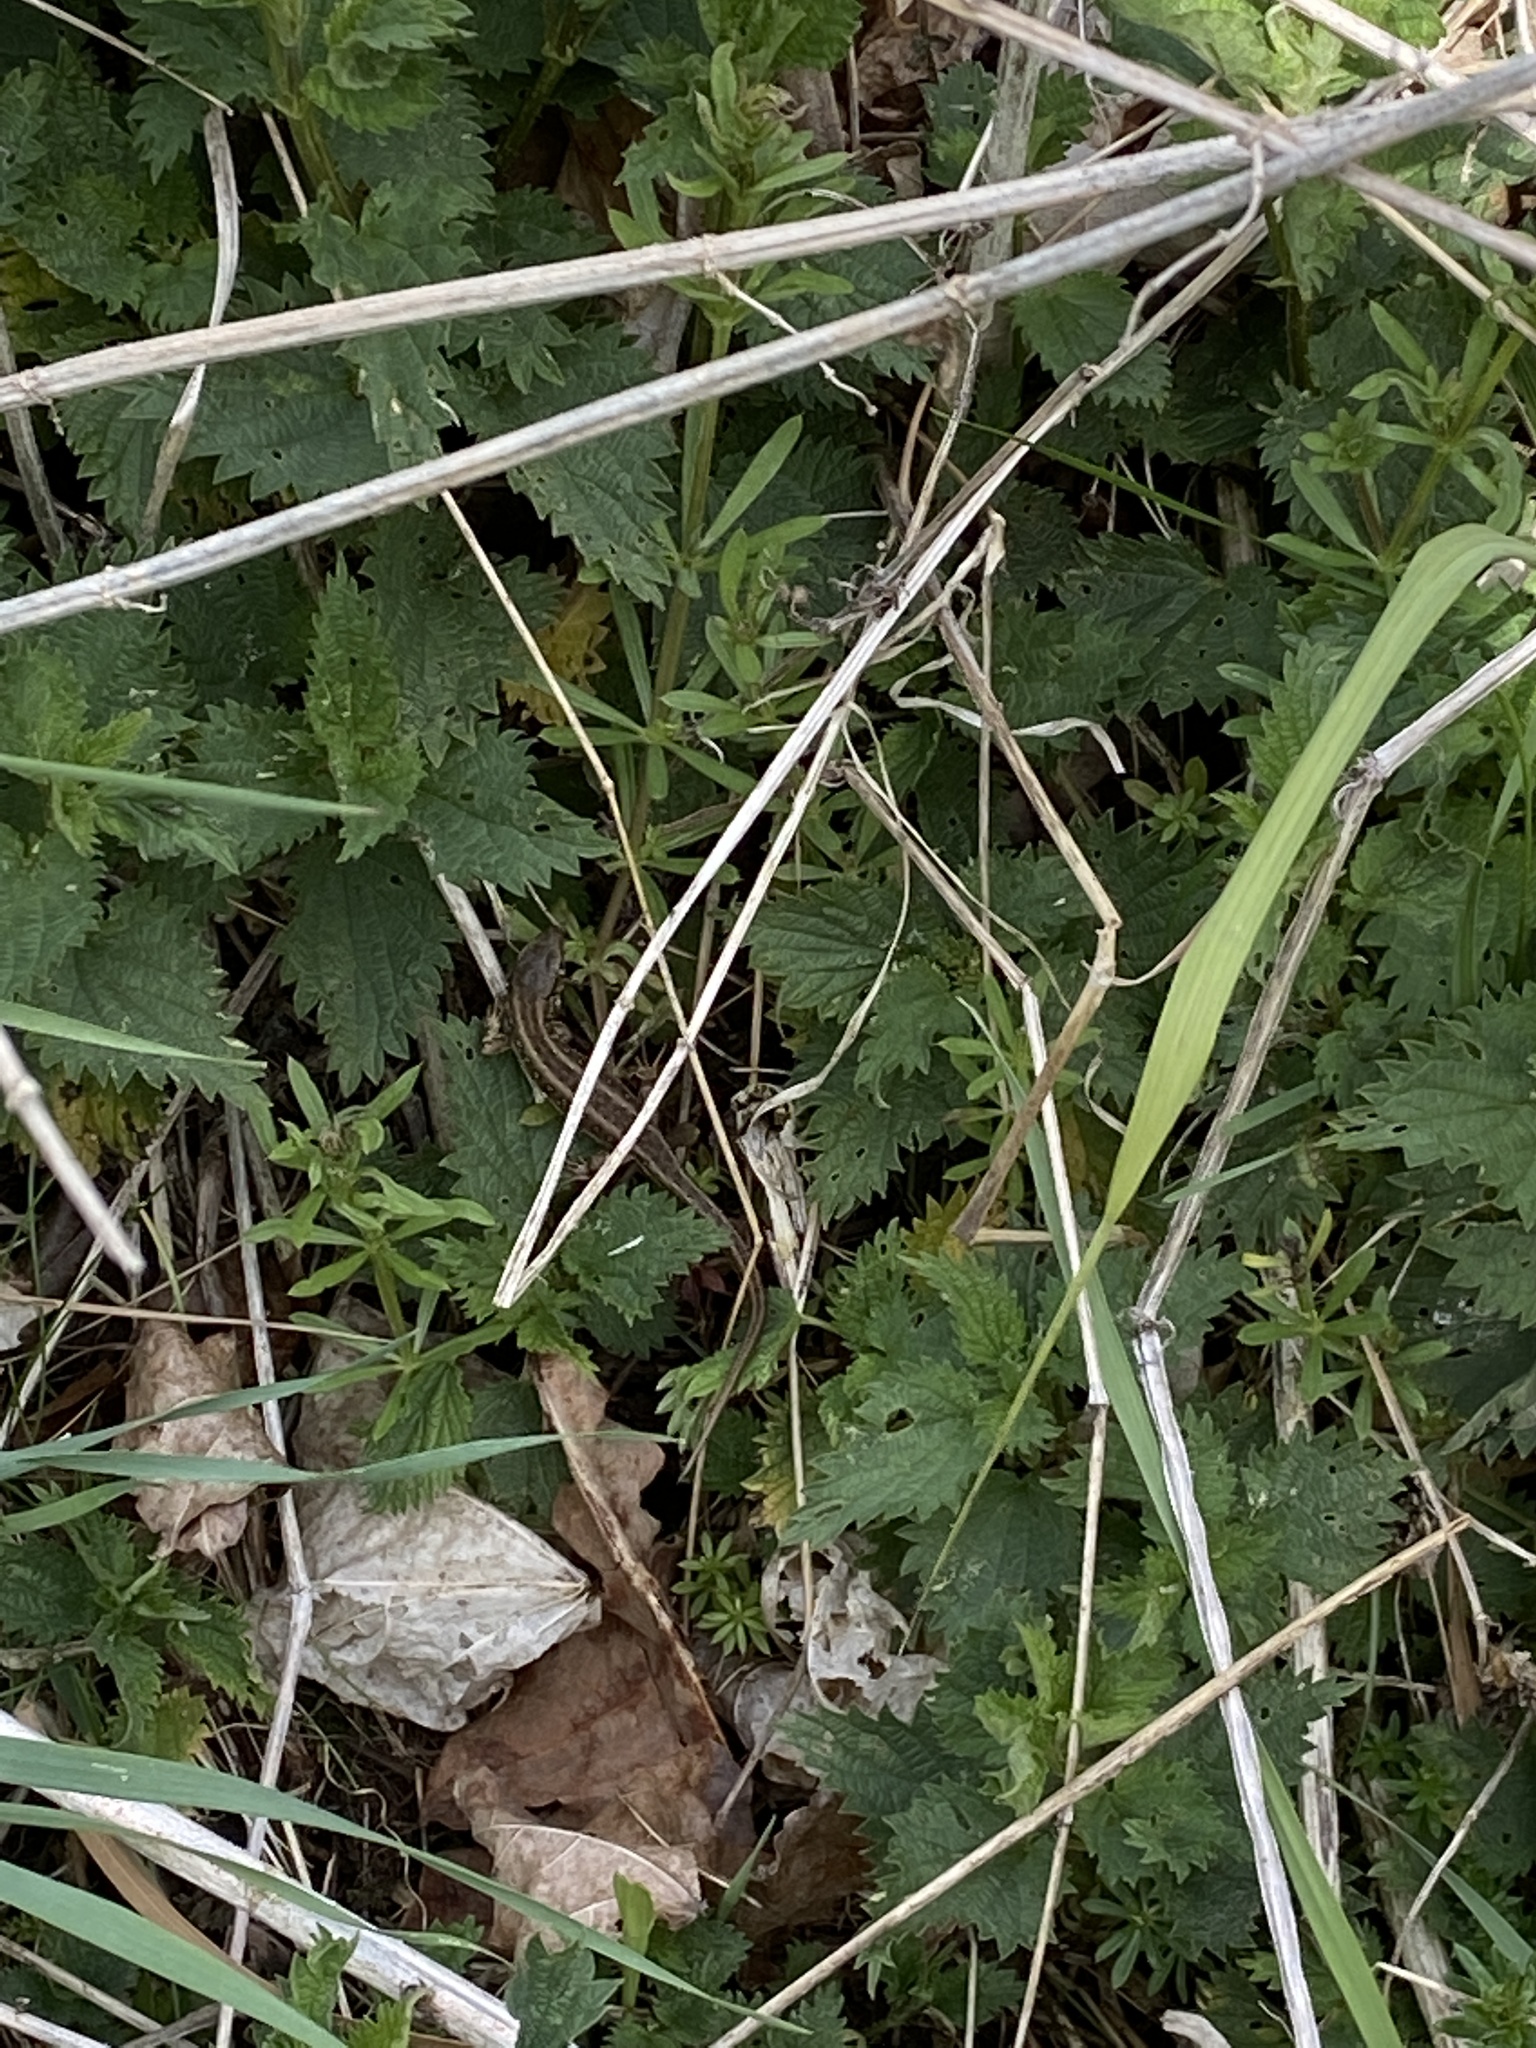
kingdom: Animalia
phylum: Chordata
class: Squamata
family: Lacertidae
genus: Lacerta
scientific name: Lacerta agilis
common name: Sand lizard
